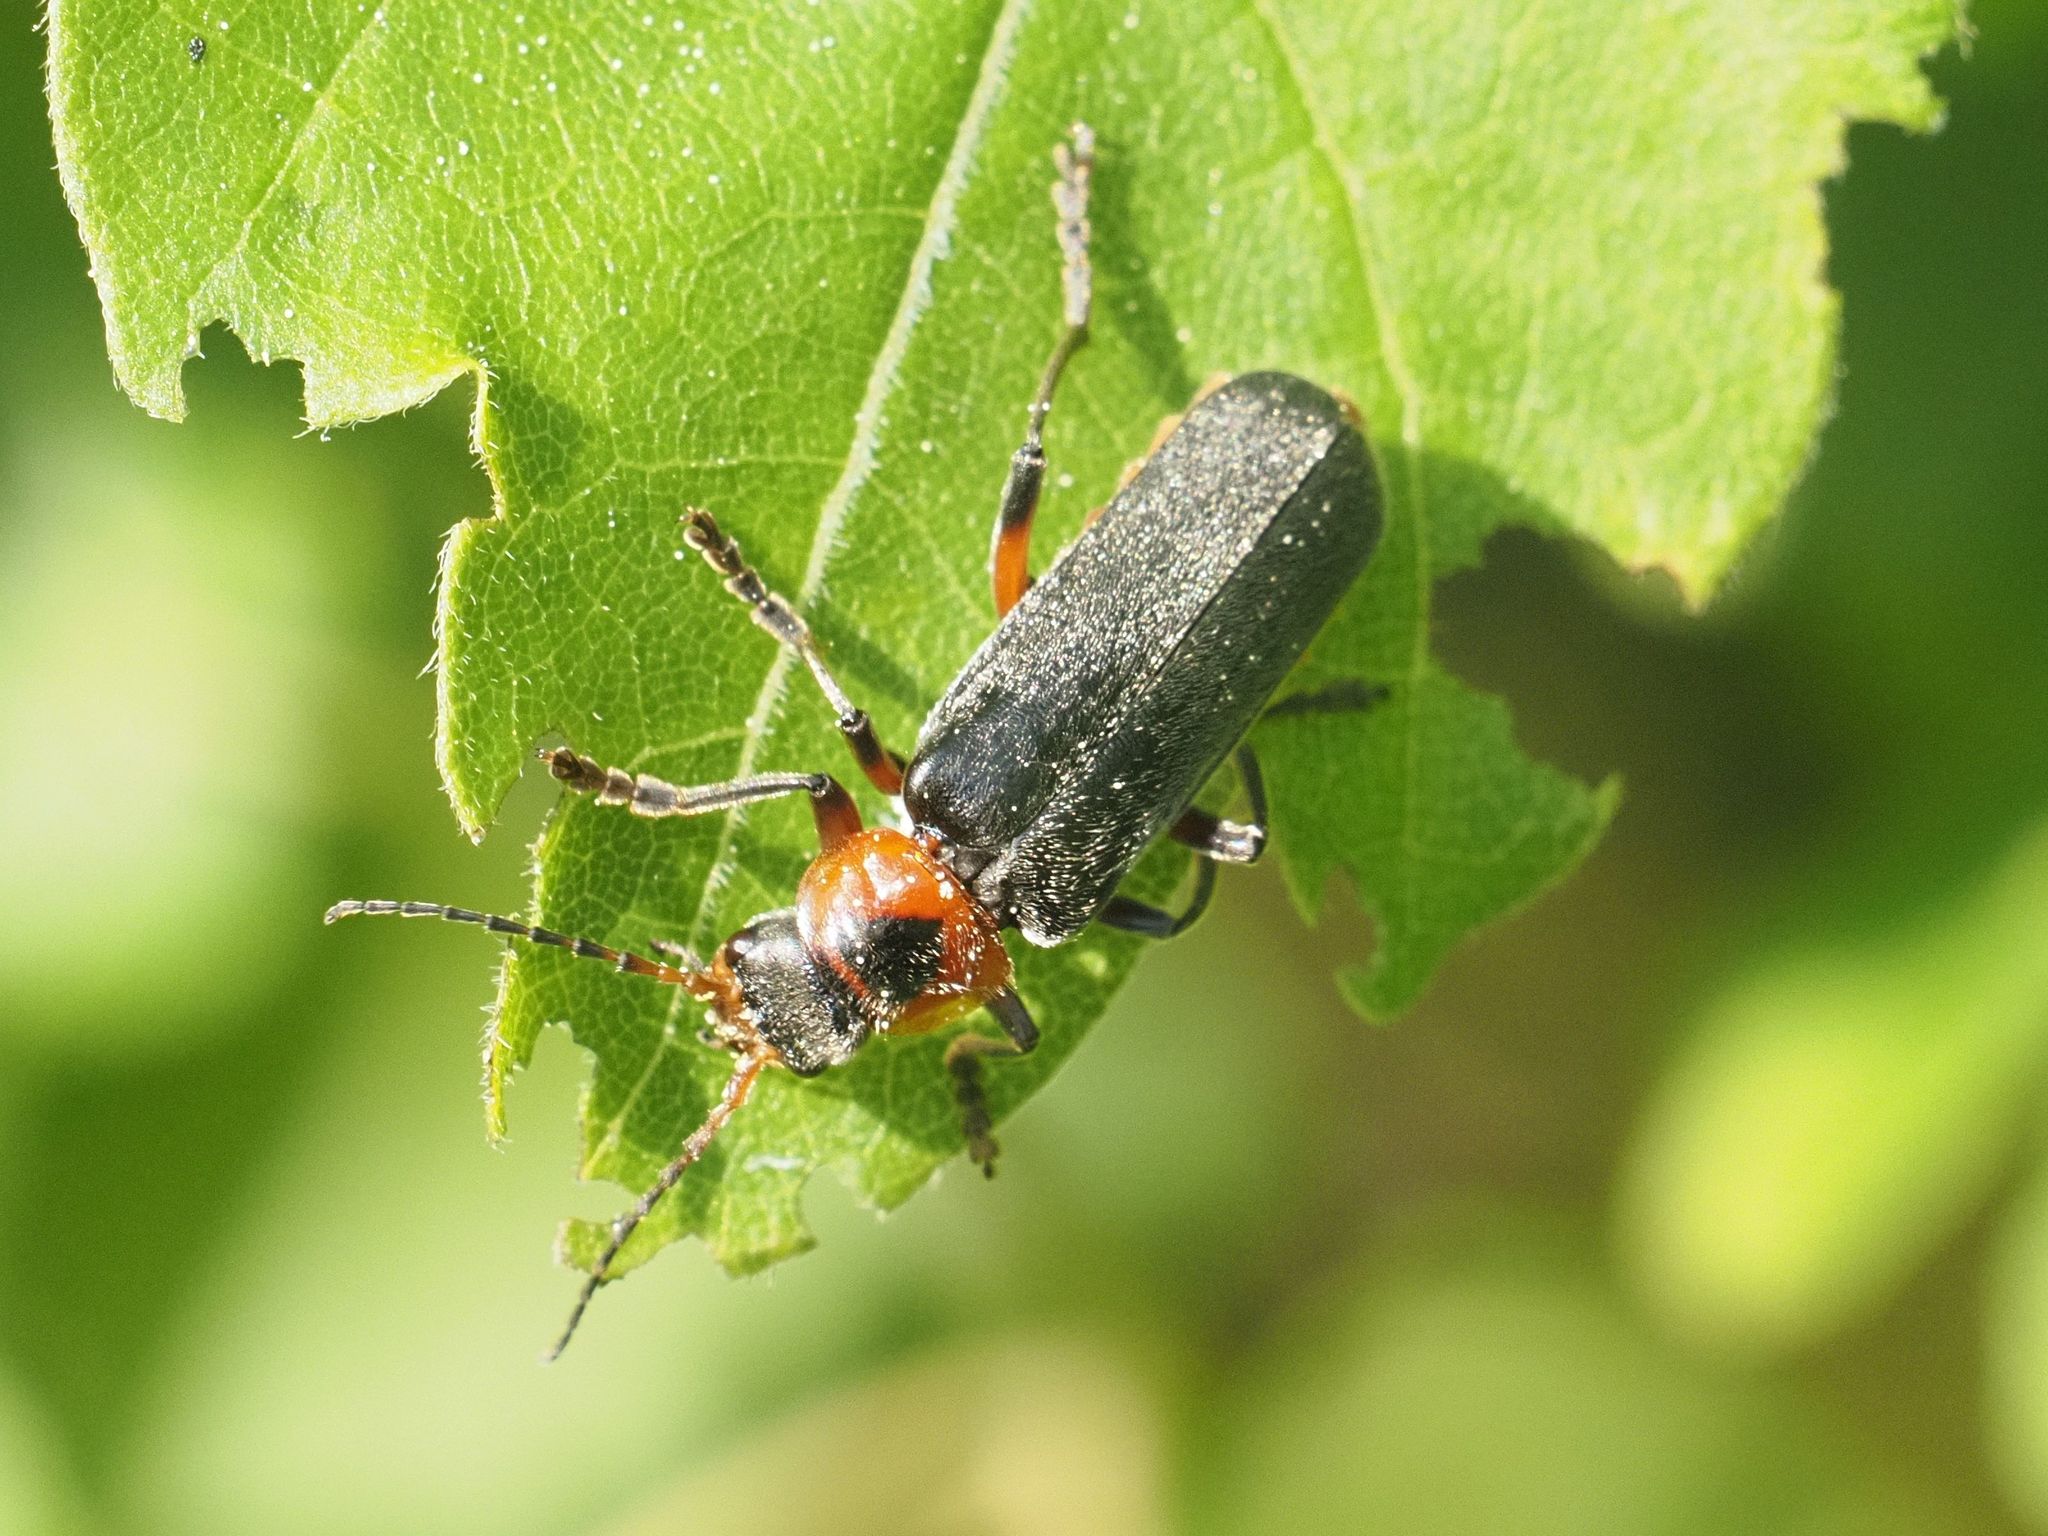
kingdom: Animalia
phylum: Arthropoda
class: Insecta
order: Coleoptera
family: Cantharidae
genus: Cantharis
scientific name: Cantharis rustica
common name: Soldier beetle
